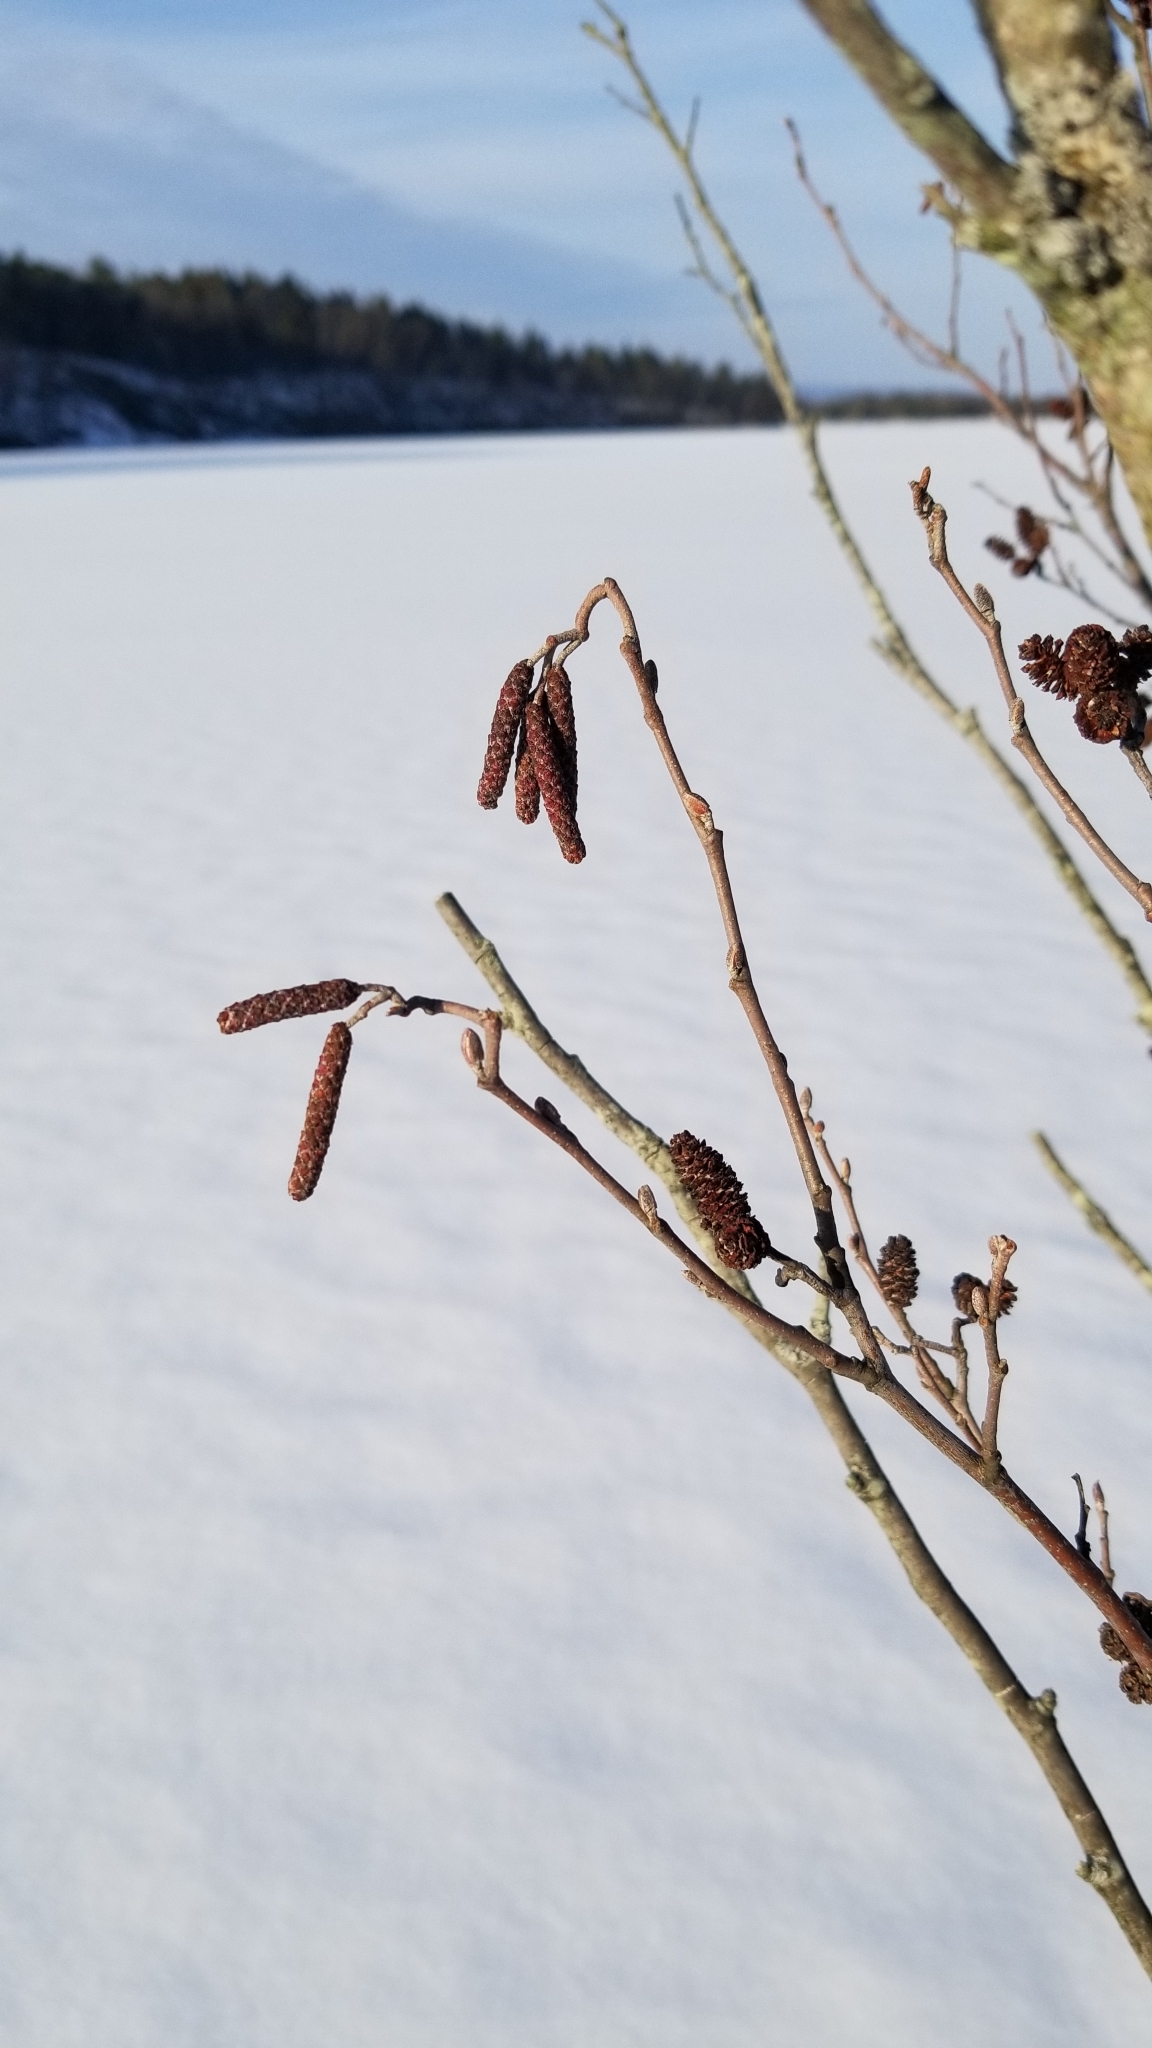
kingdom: Plantae
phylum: Tracheophyta
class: Magnoliopsida
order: Fagales
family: Betulaceae
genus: Alnus
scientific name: Alnus incana
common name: Grey alder
